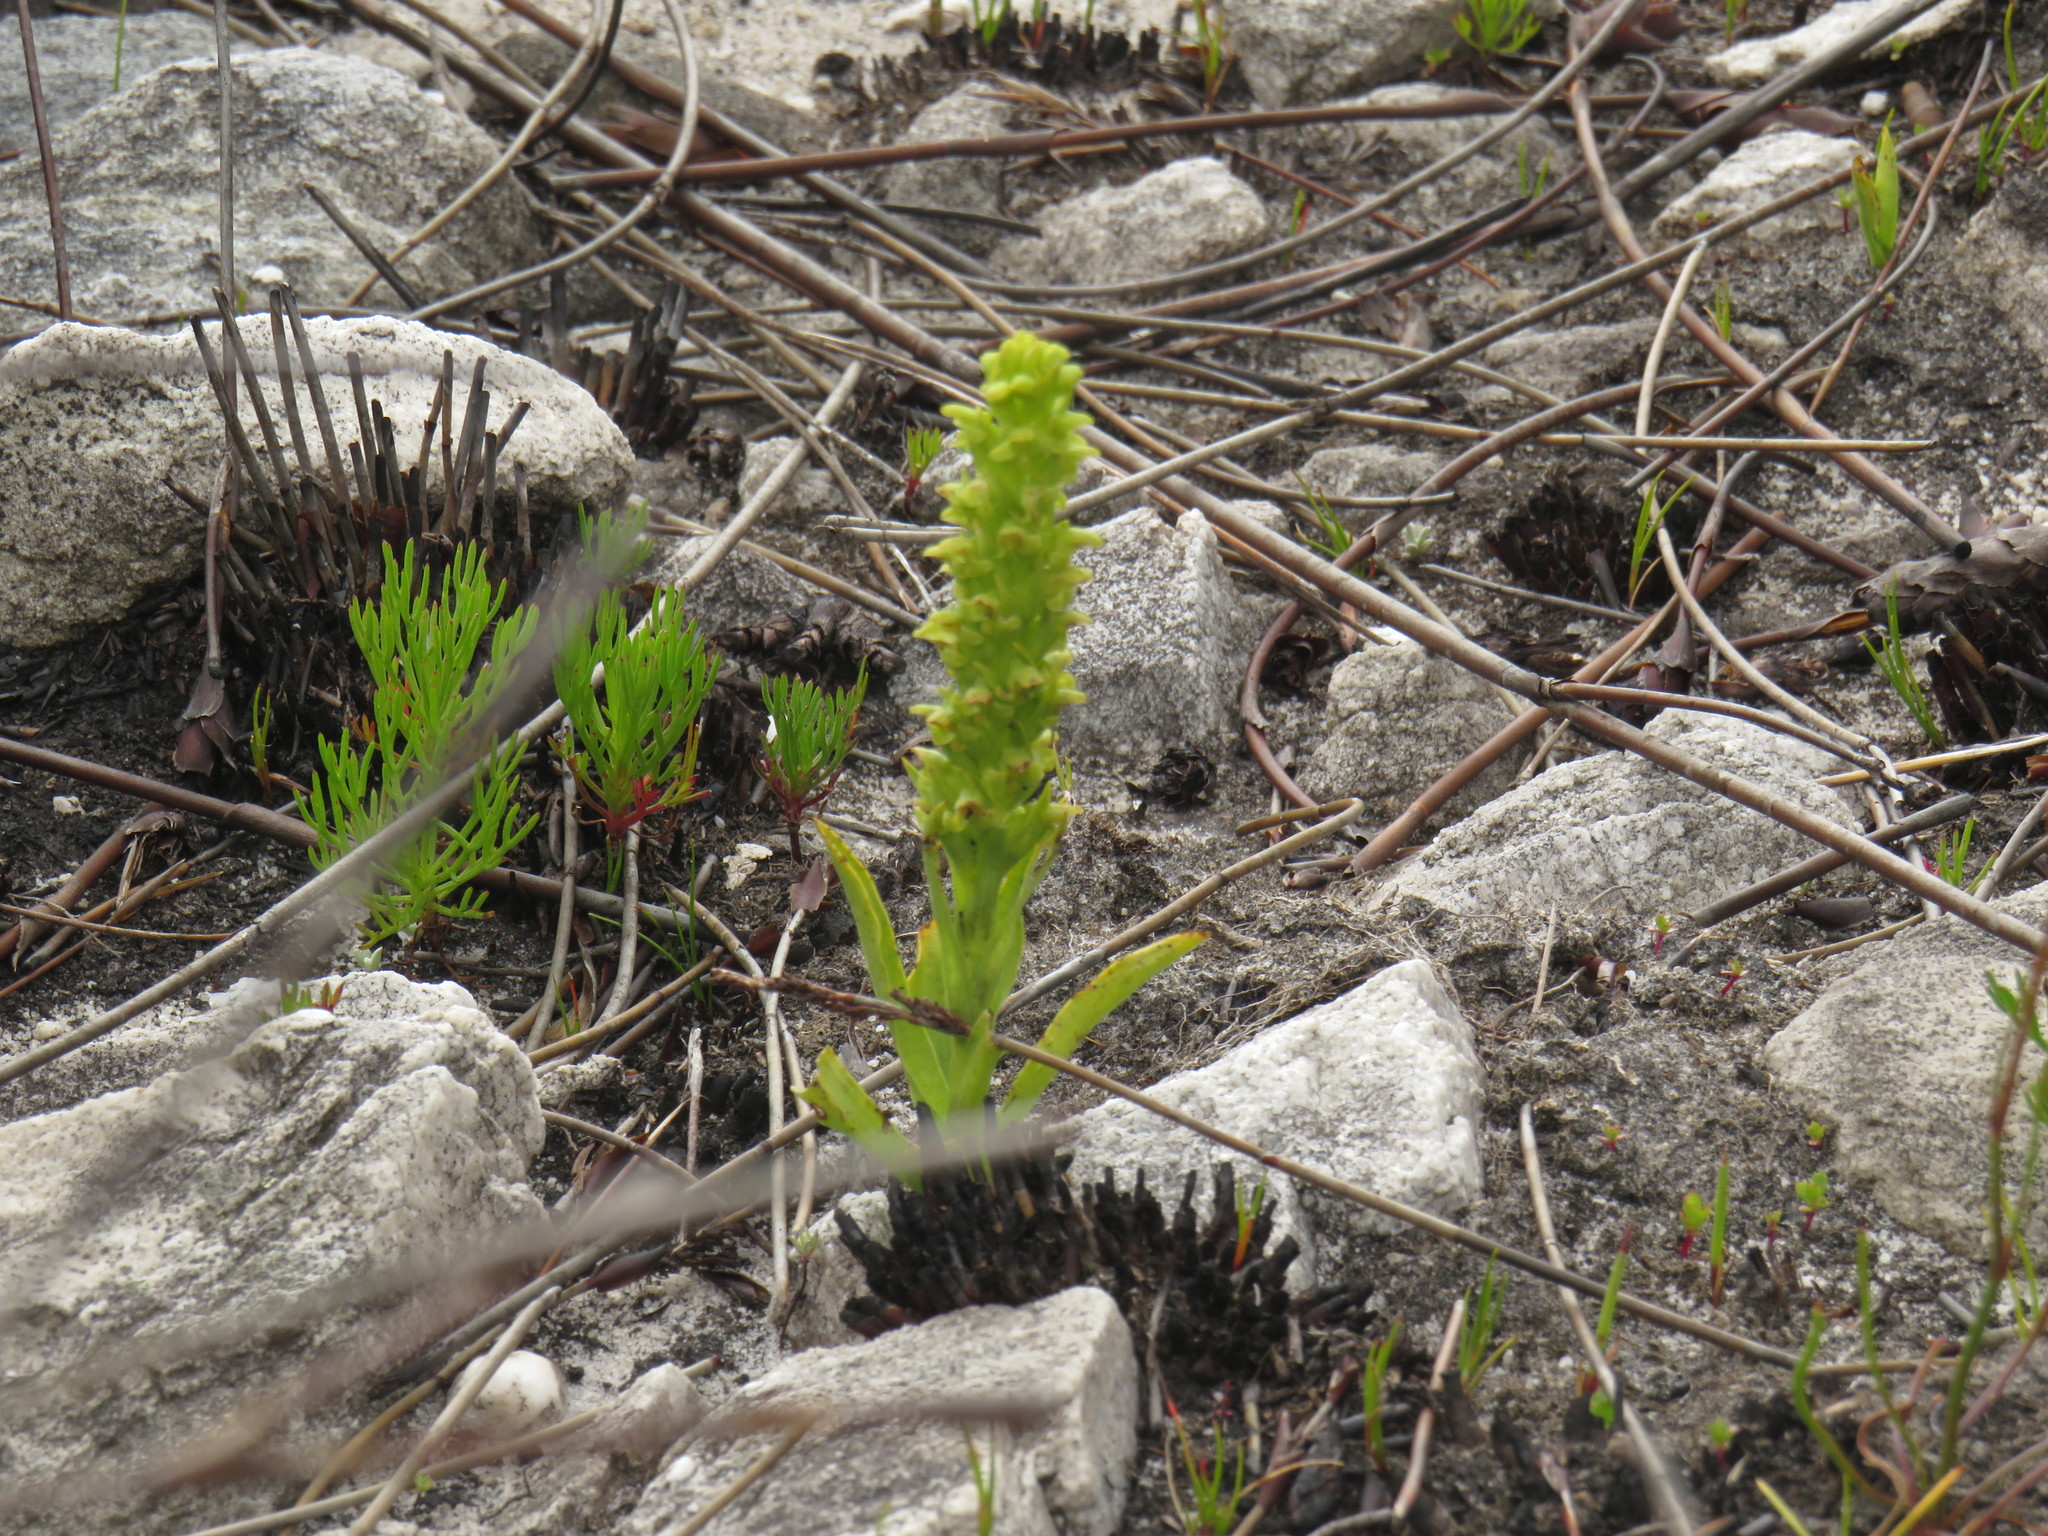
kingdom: Plantae
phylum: Tracheophyta
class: Liliopsida
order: Asparagales
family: Orchidaceae
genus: Disa
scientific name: Disa cylindrica
